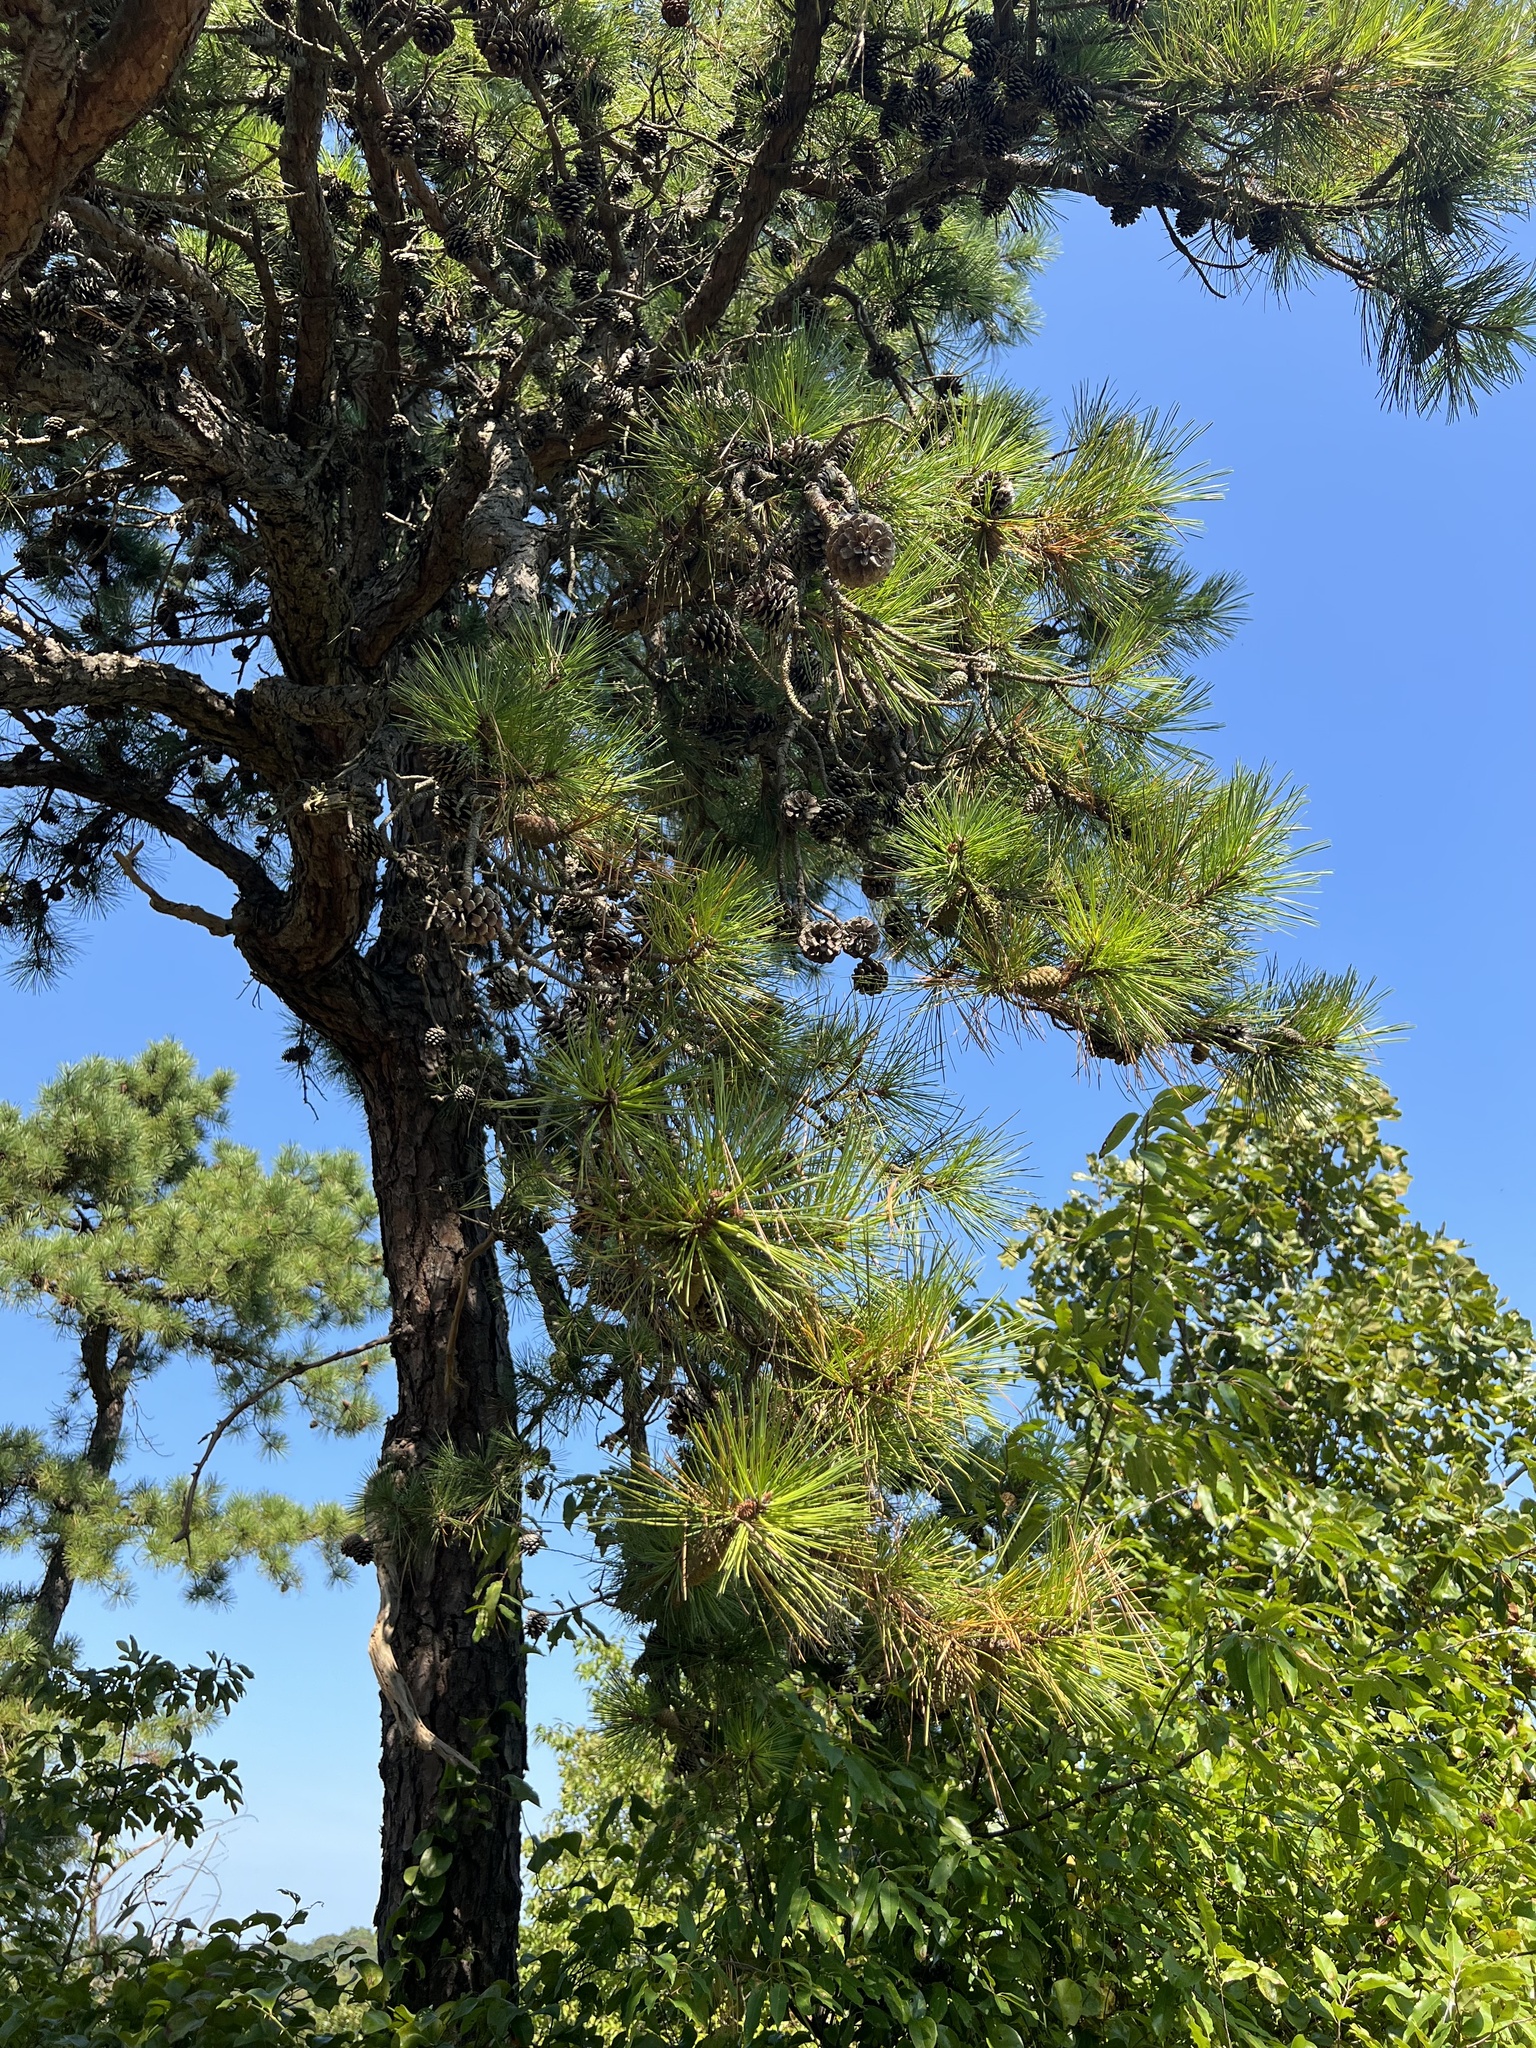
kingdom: Plantae
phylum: Tracheophyta
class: Pinopsida
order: Pinales
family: Pinaceae
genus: Pinus
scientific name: Pinus rigida
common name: Pitch pine
